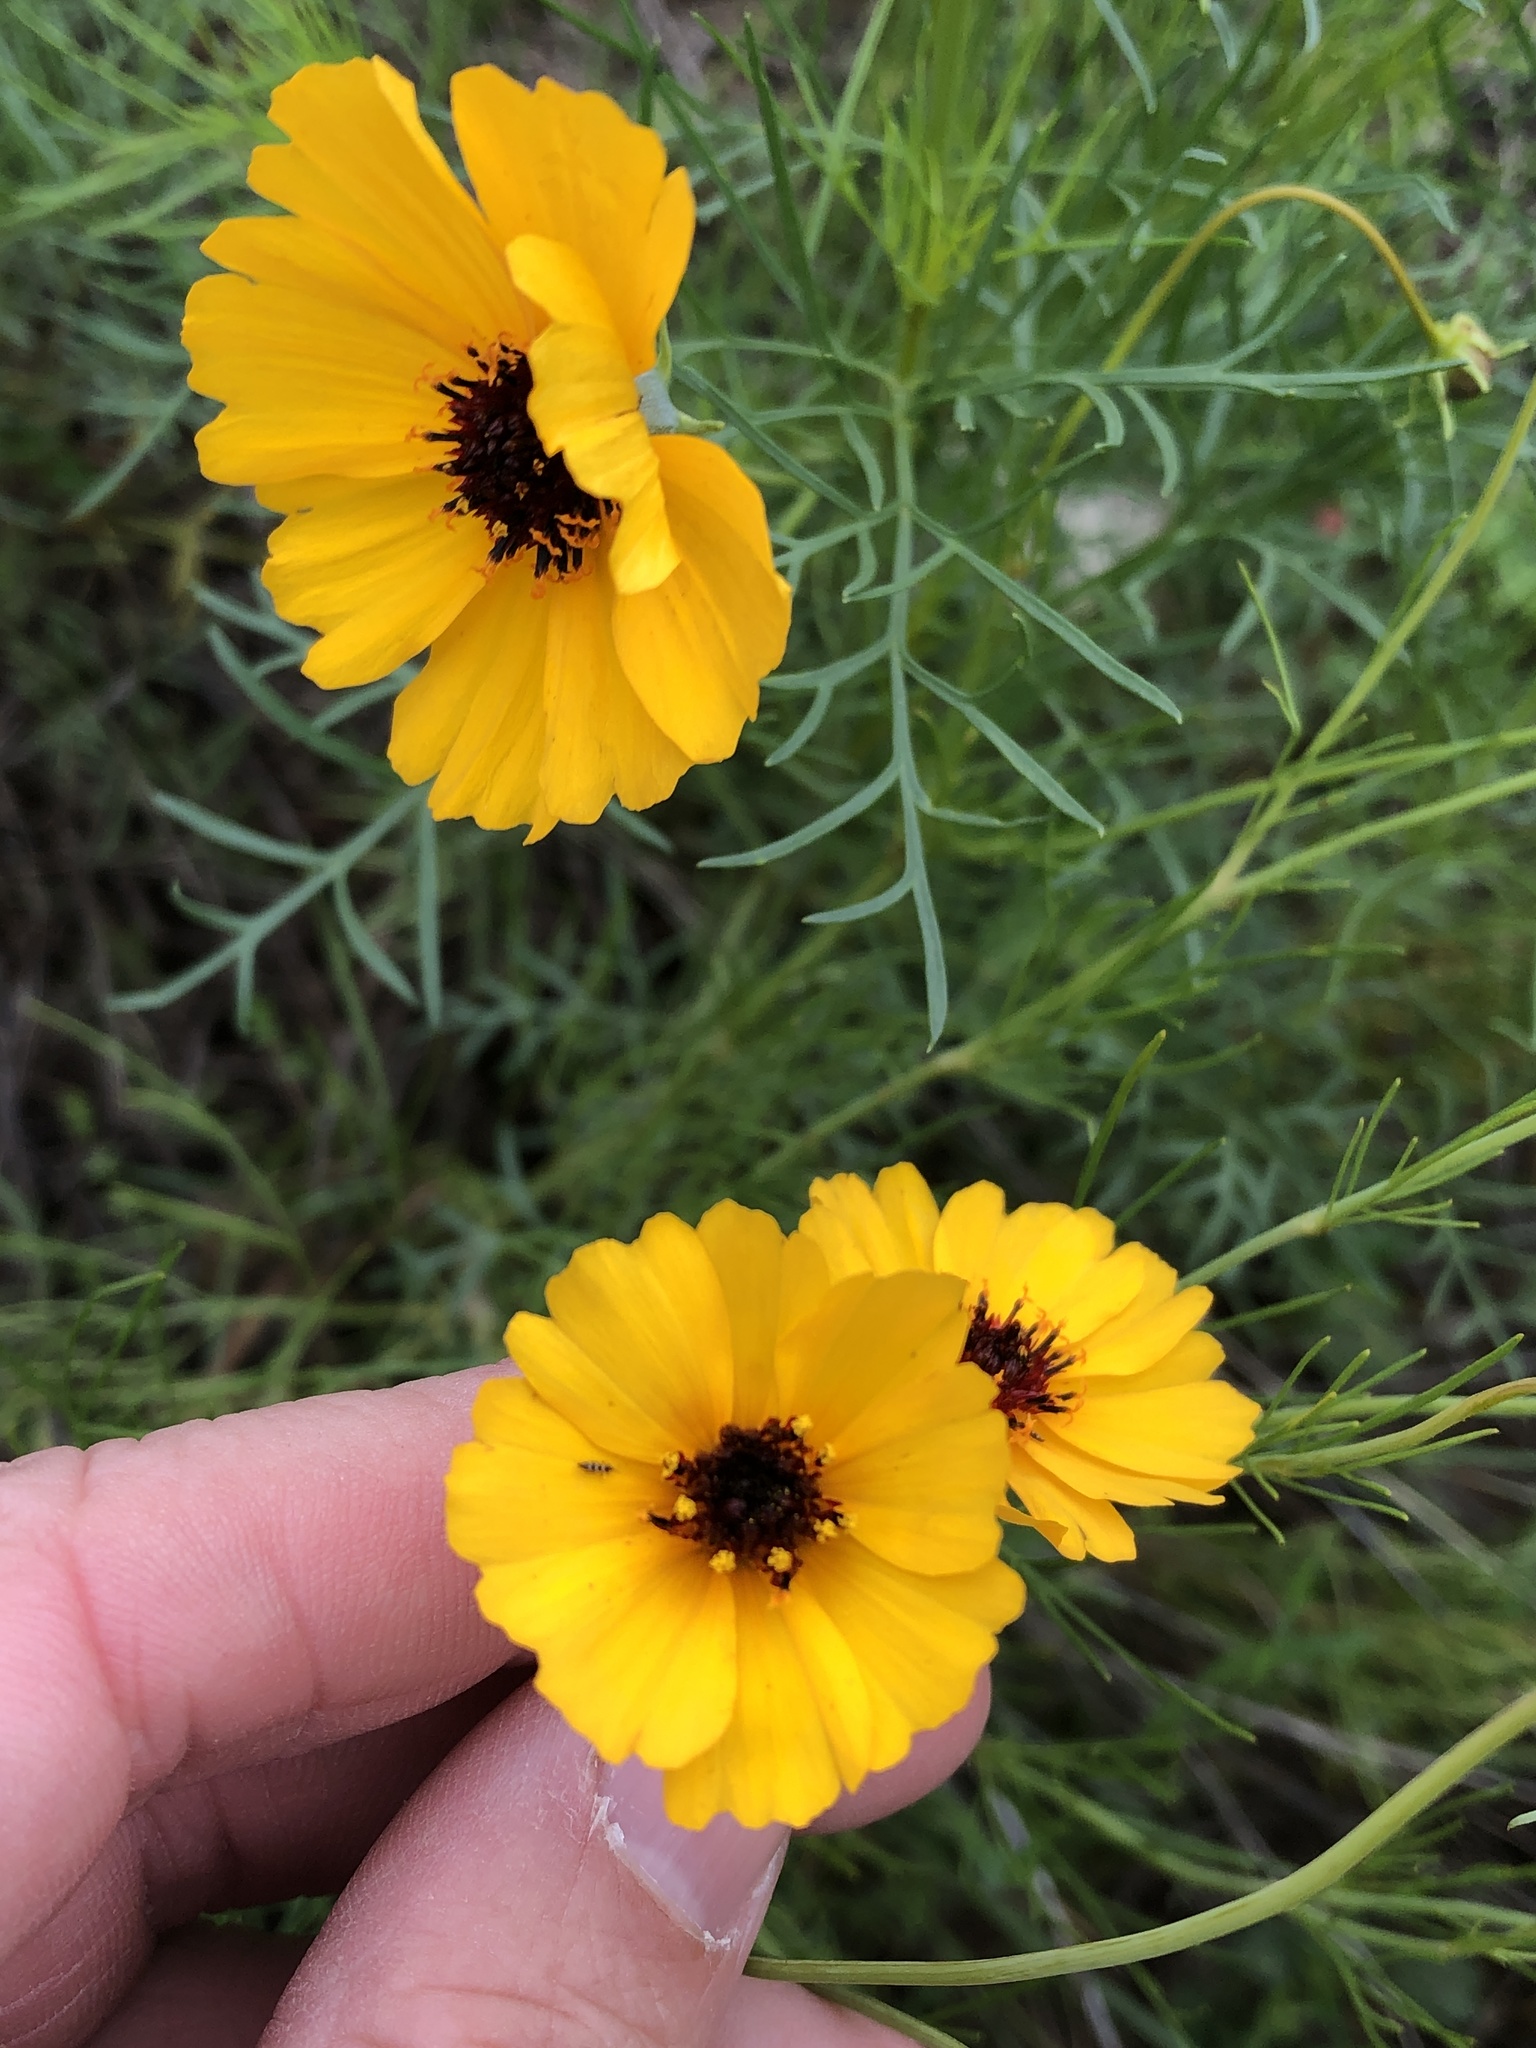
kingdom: Plantae
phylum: Tracheophyta
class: Magnoliopsida
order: Asterales
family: Asteraceae
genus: Thelesperma
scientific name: Thelesperma filifolium
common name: Stiff greenthread
